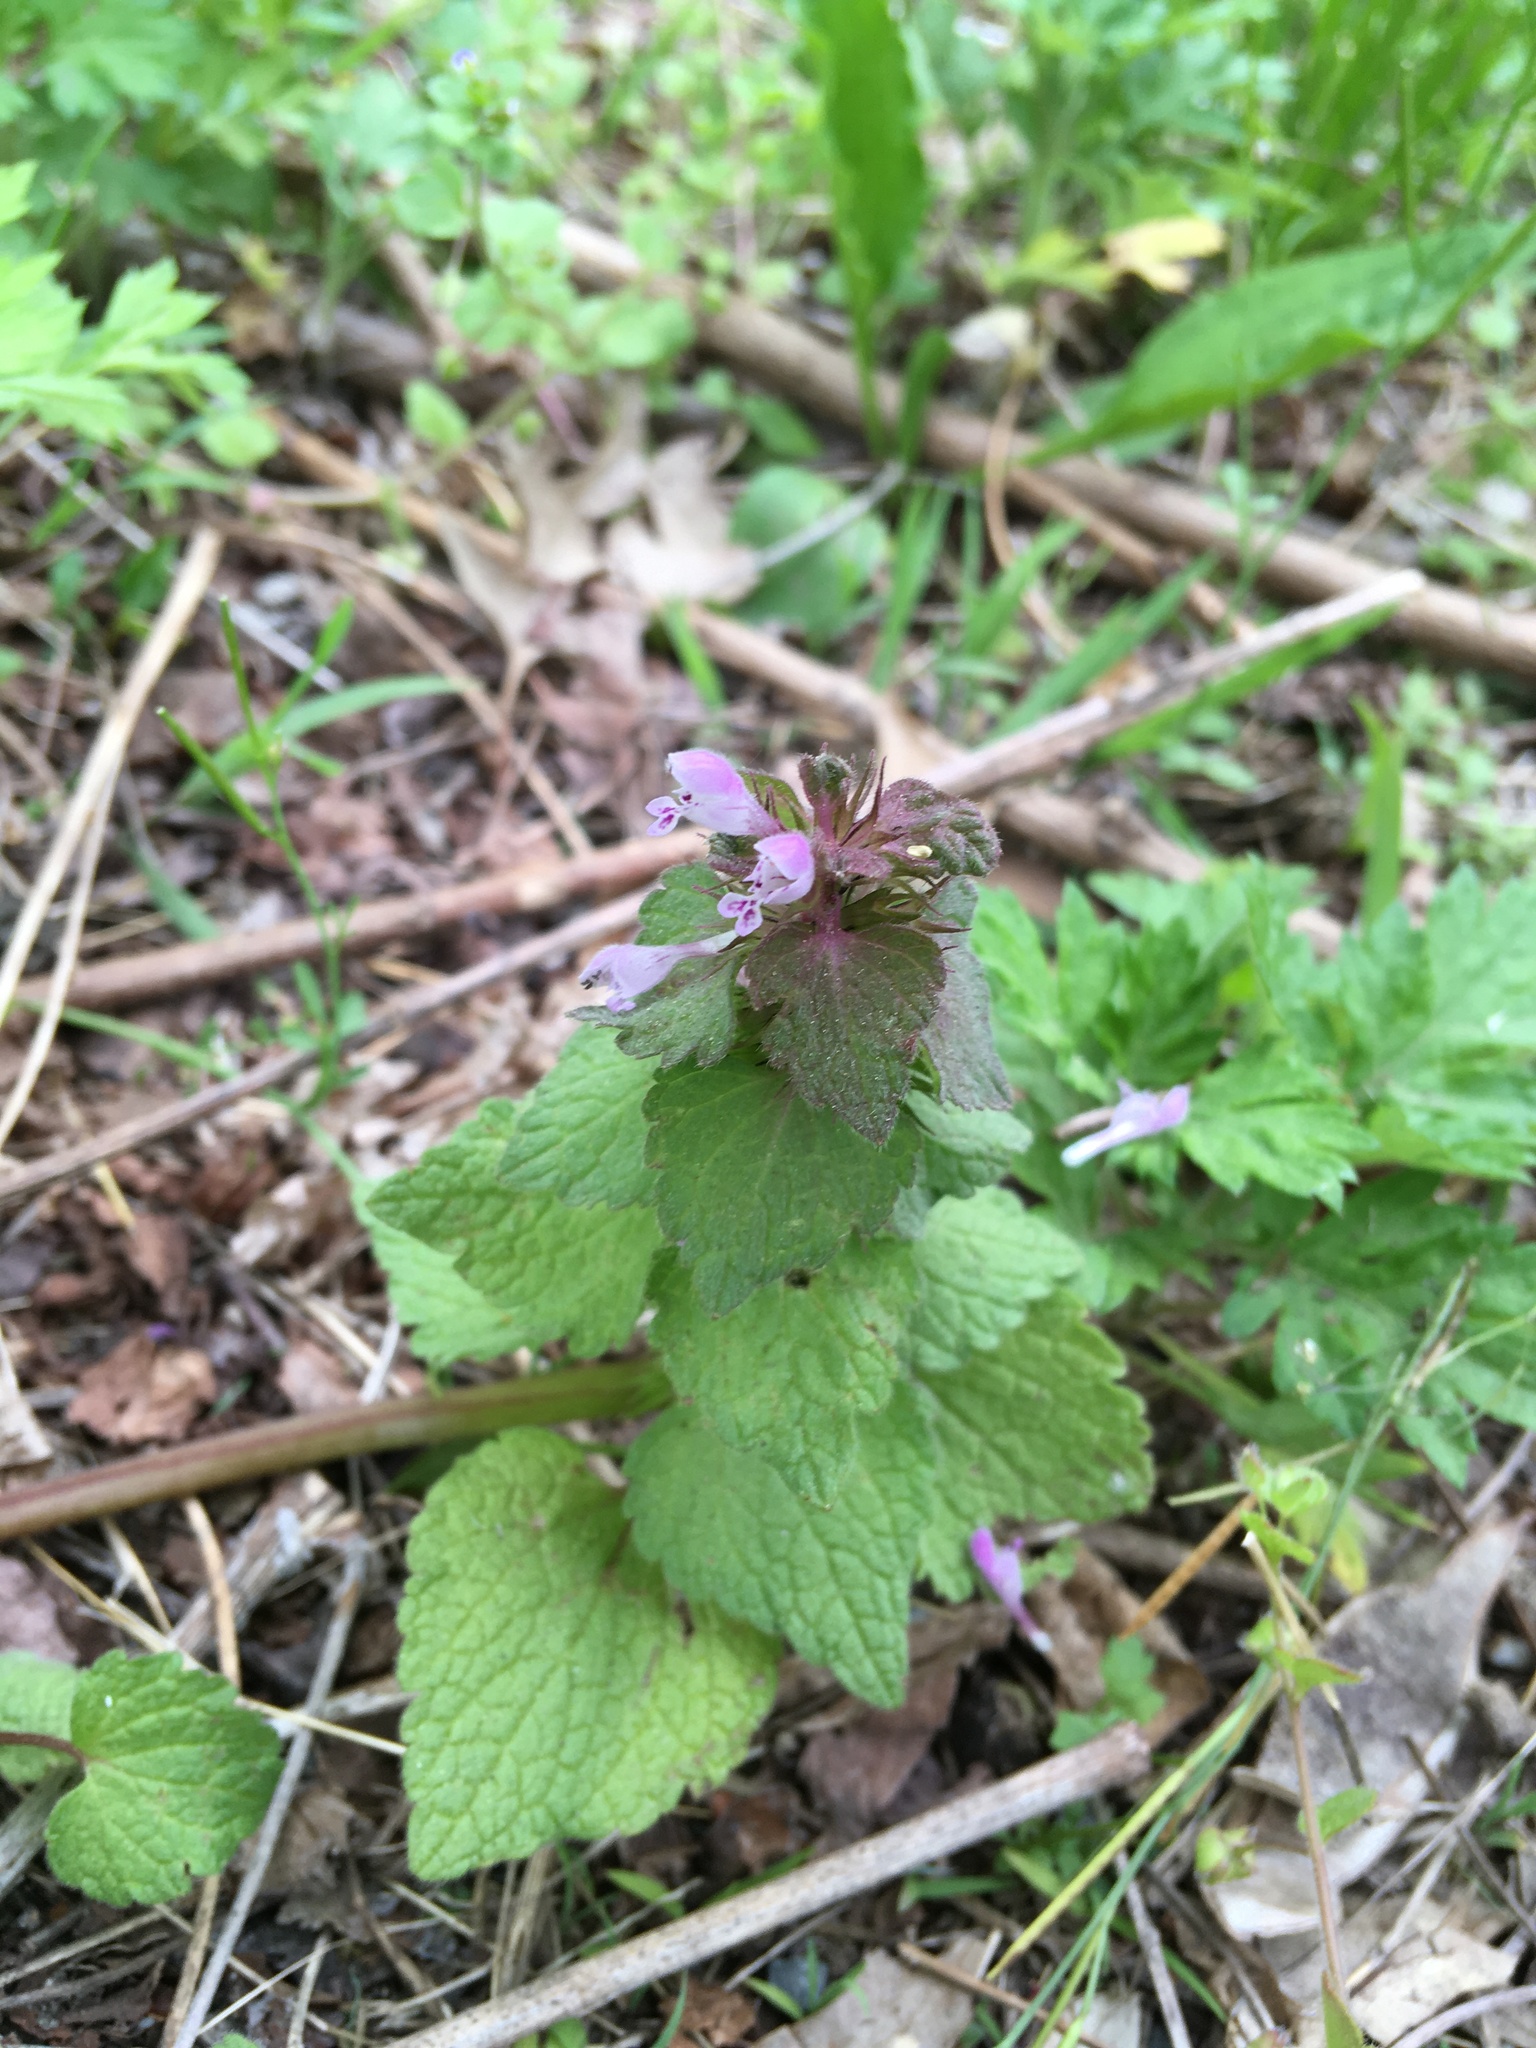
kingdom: Plantae
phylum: Tracheophyta
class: Magnoliopsida
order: Lamiales
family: Lamiaceae
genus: Lamium
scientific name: Lamium purpureum
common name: Red dead-nettle
